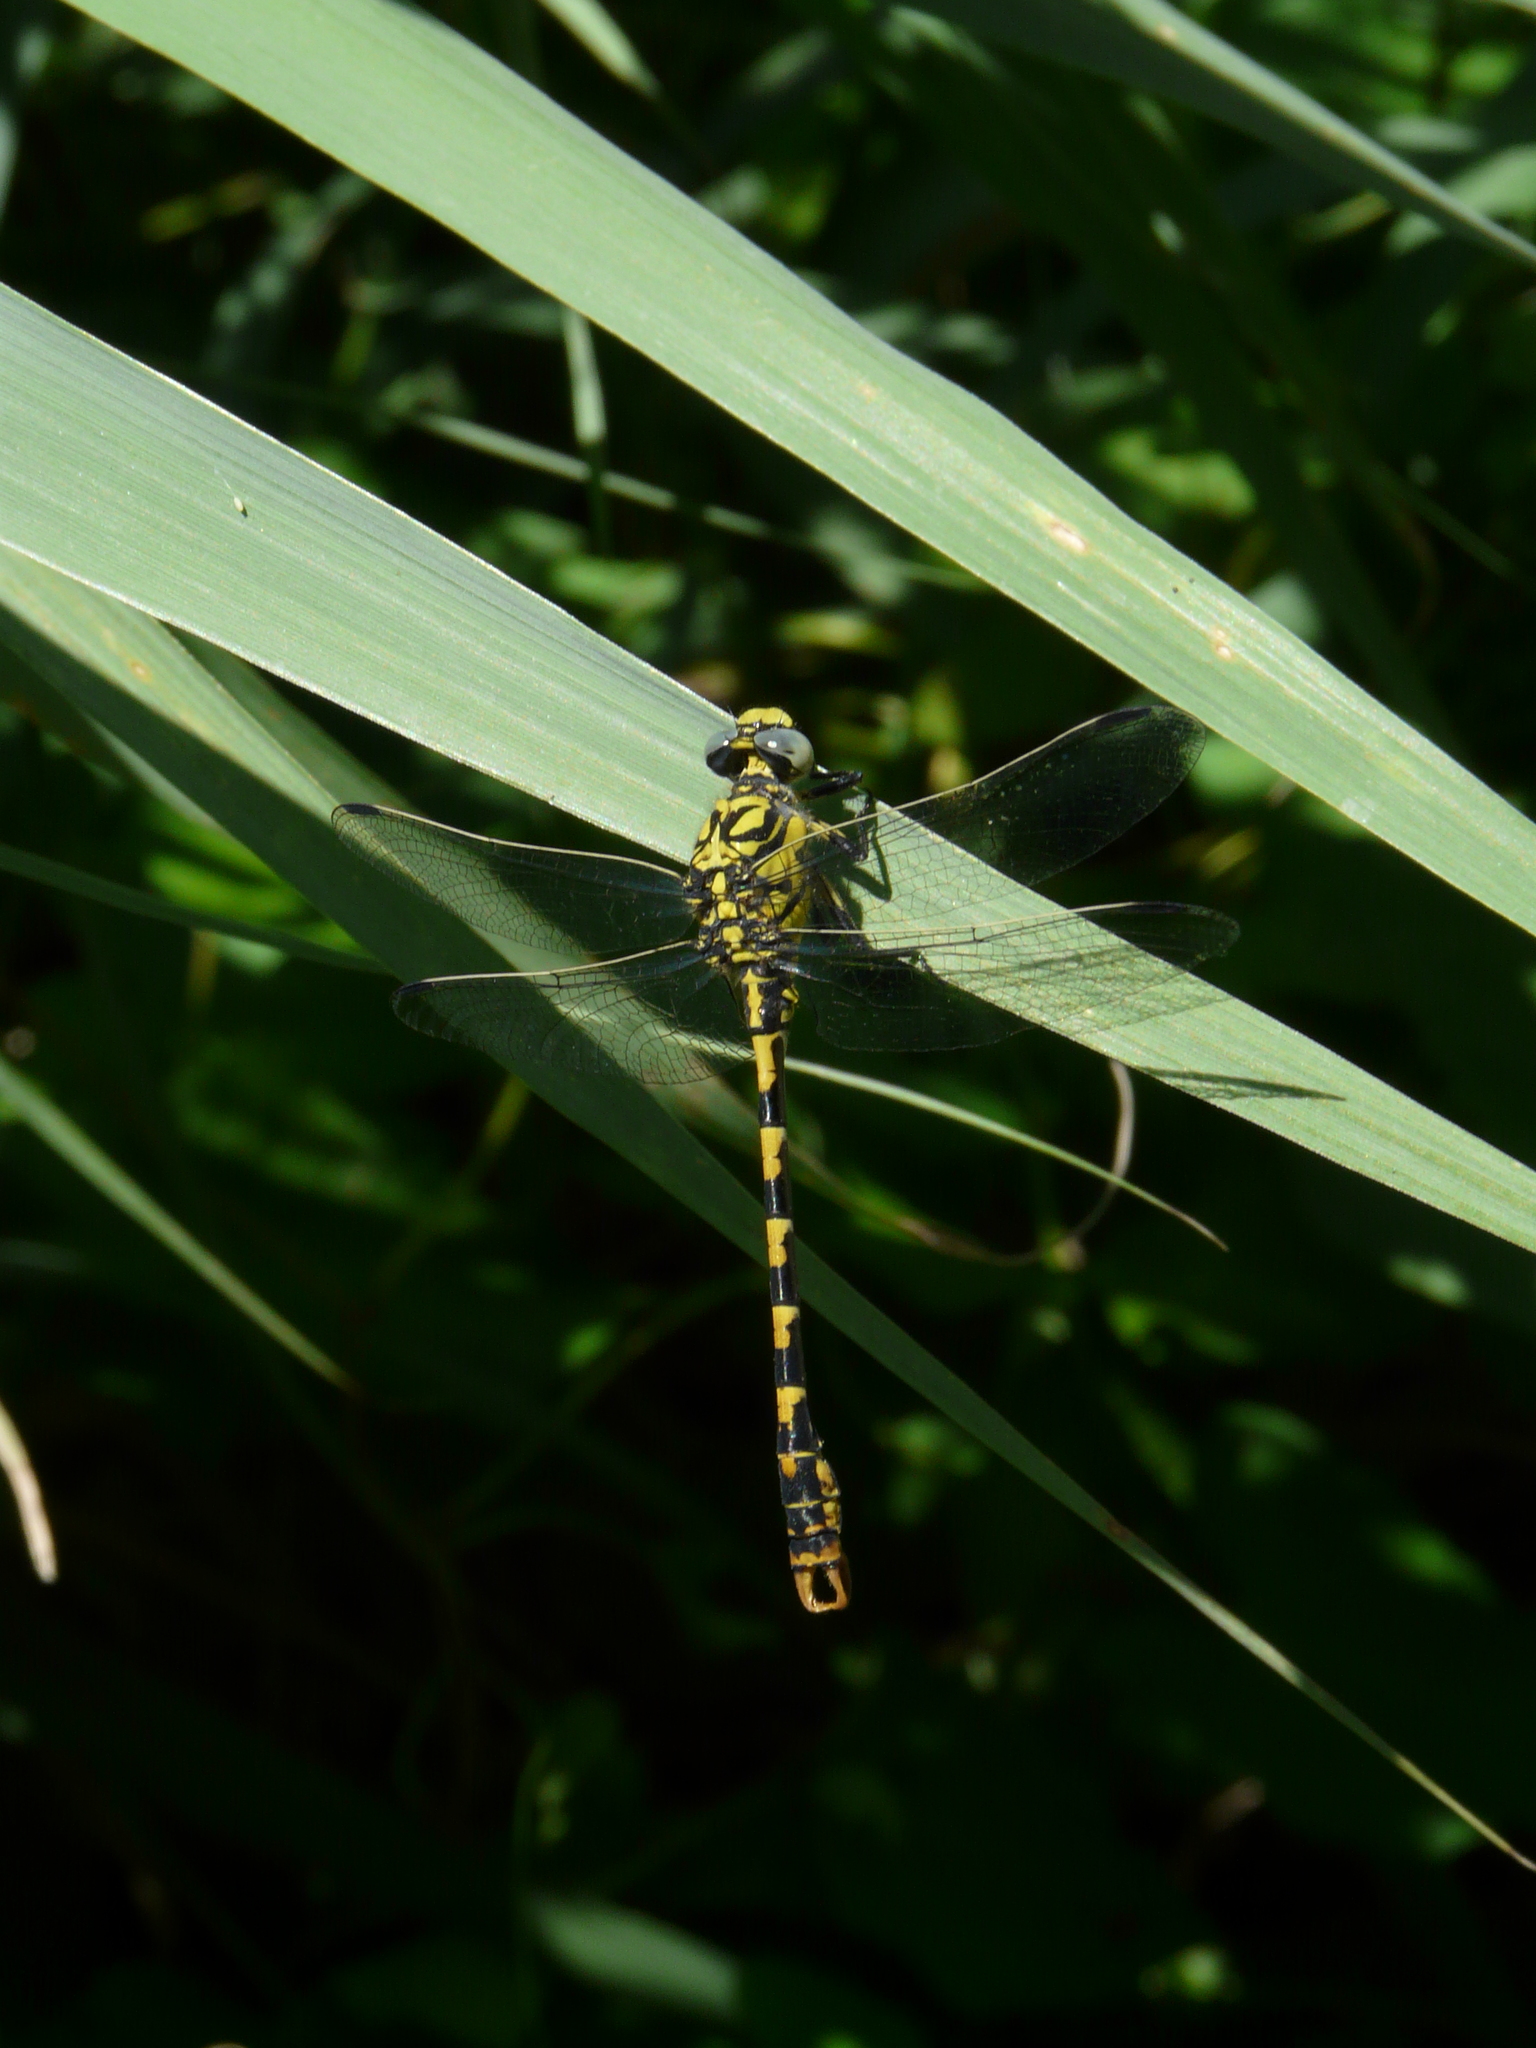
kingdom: Animalia
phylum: Arthropoda
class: Insecta
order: Odonata
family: Gomphidae
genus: Onychogomphus
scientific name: Onychogomphus forcipatus
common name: Small pincertail
